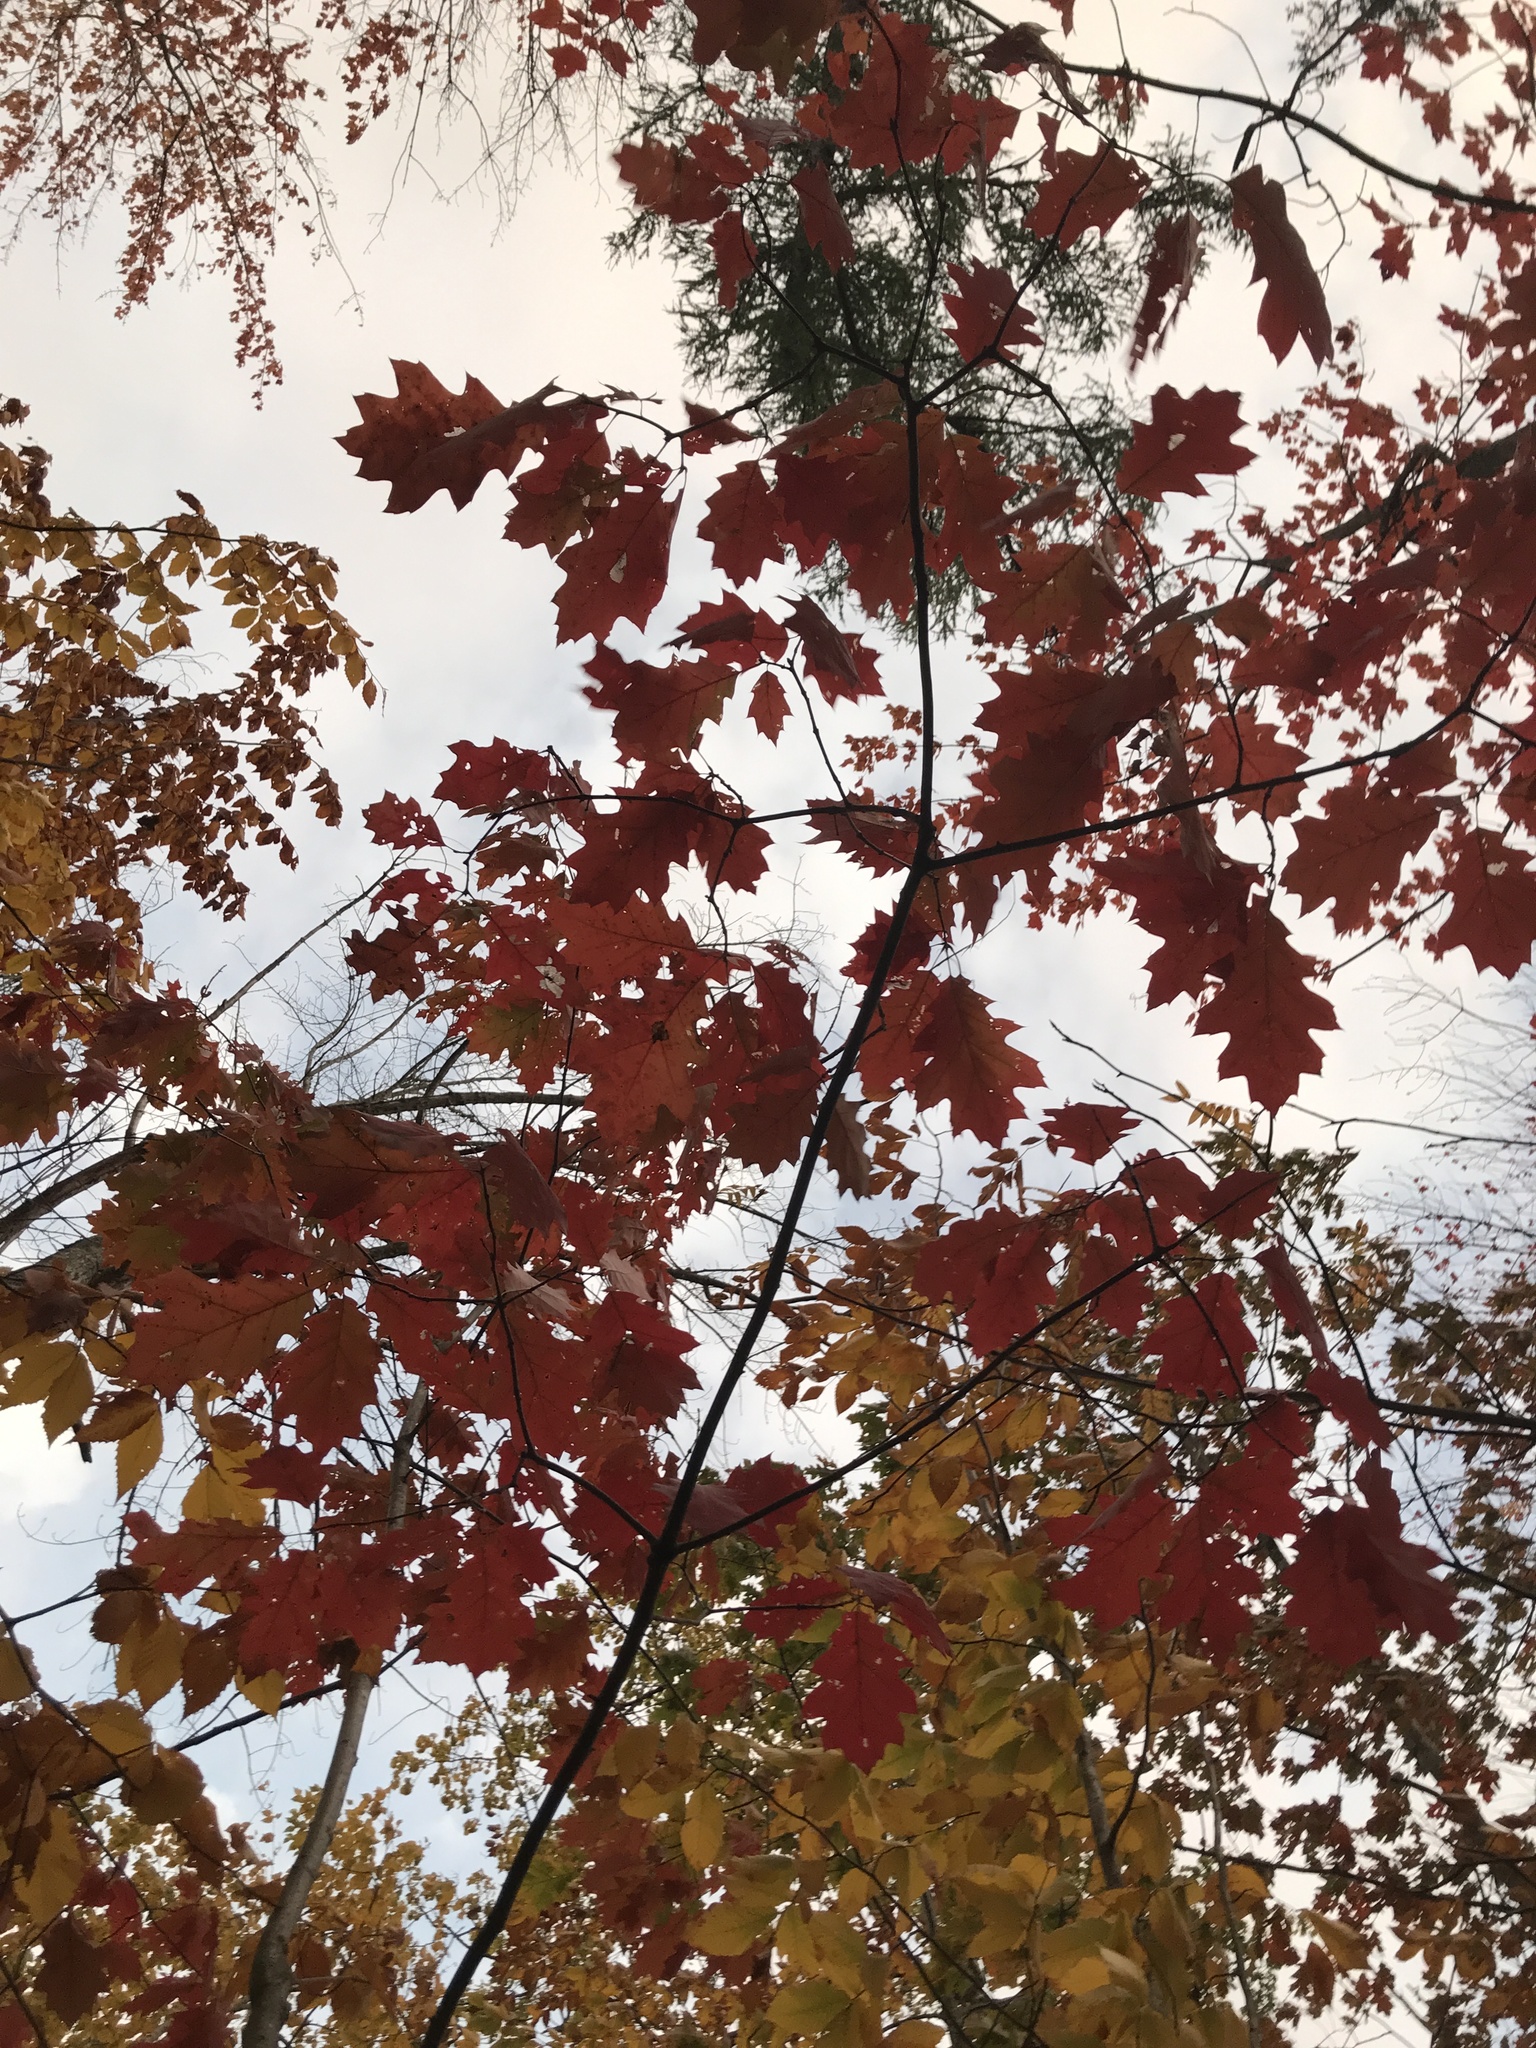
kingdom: Plantae
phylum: Tracheophyta
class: Magnoliopsida
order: Fagales
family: Fagaceae
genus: Quercus
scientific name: Quercus rubra
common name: Red oak
